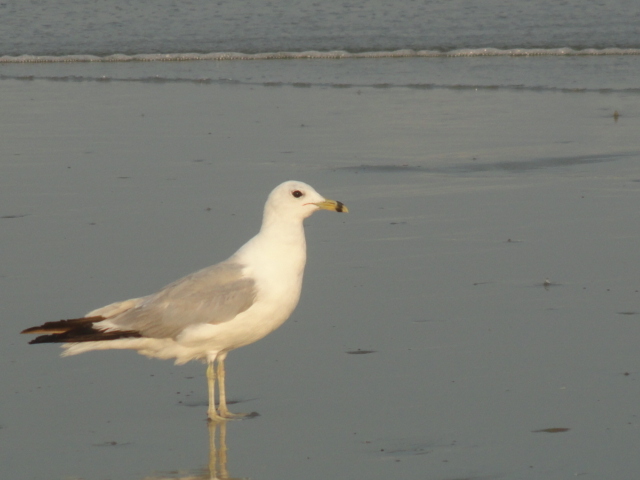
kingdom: Animalia
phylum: Chordata
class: Aves
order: Charadriiformes
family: Laridae
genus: Larus
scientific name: Larus delawarensis
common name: Ring-billed gull
